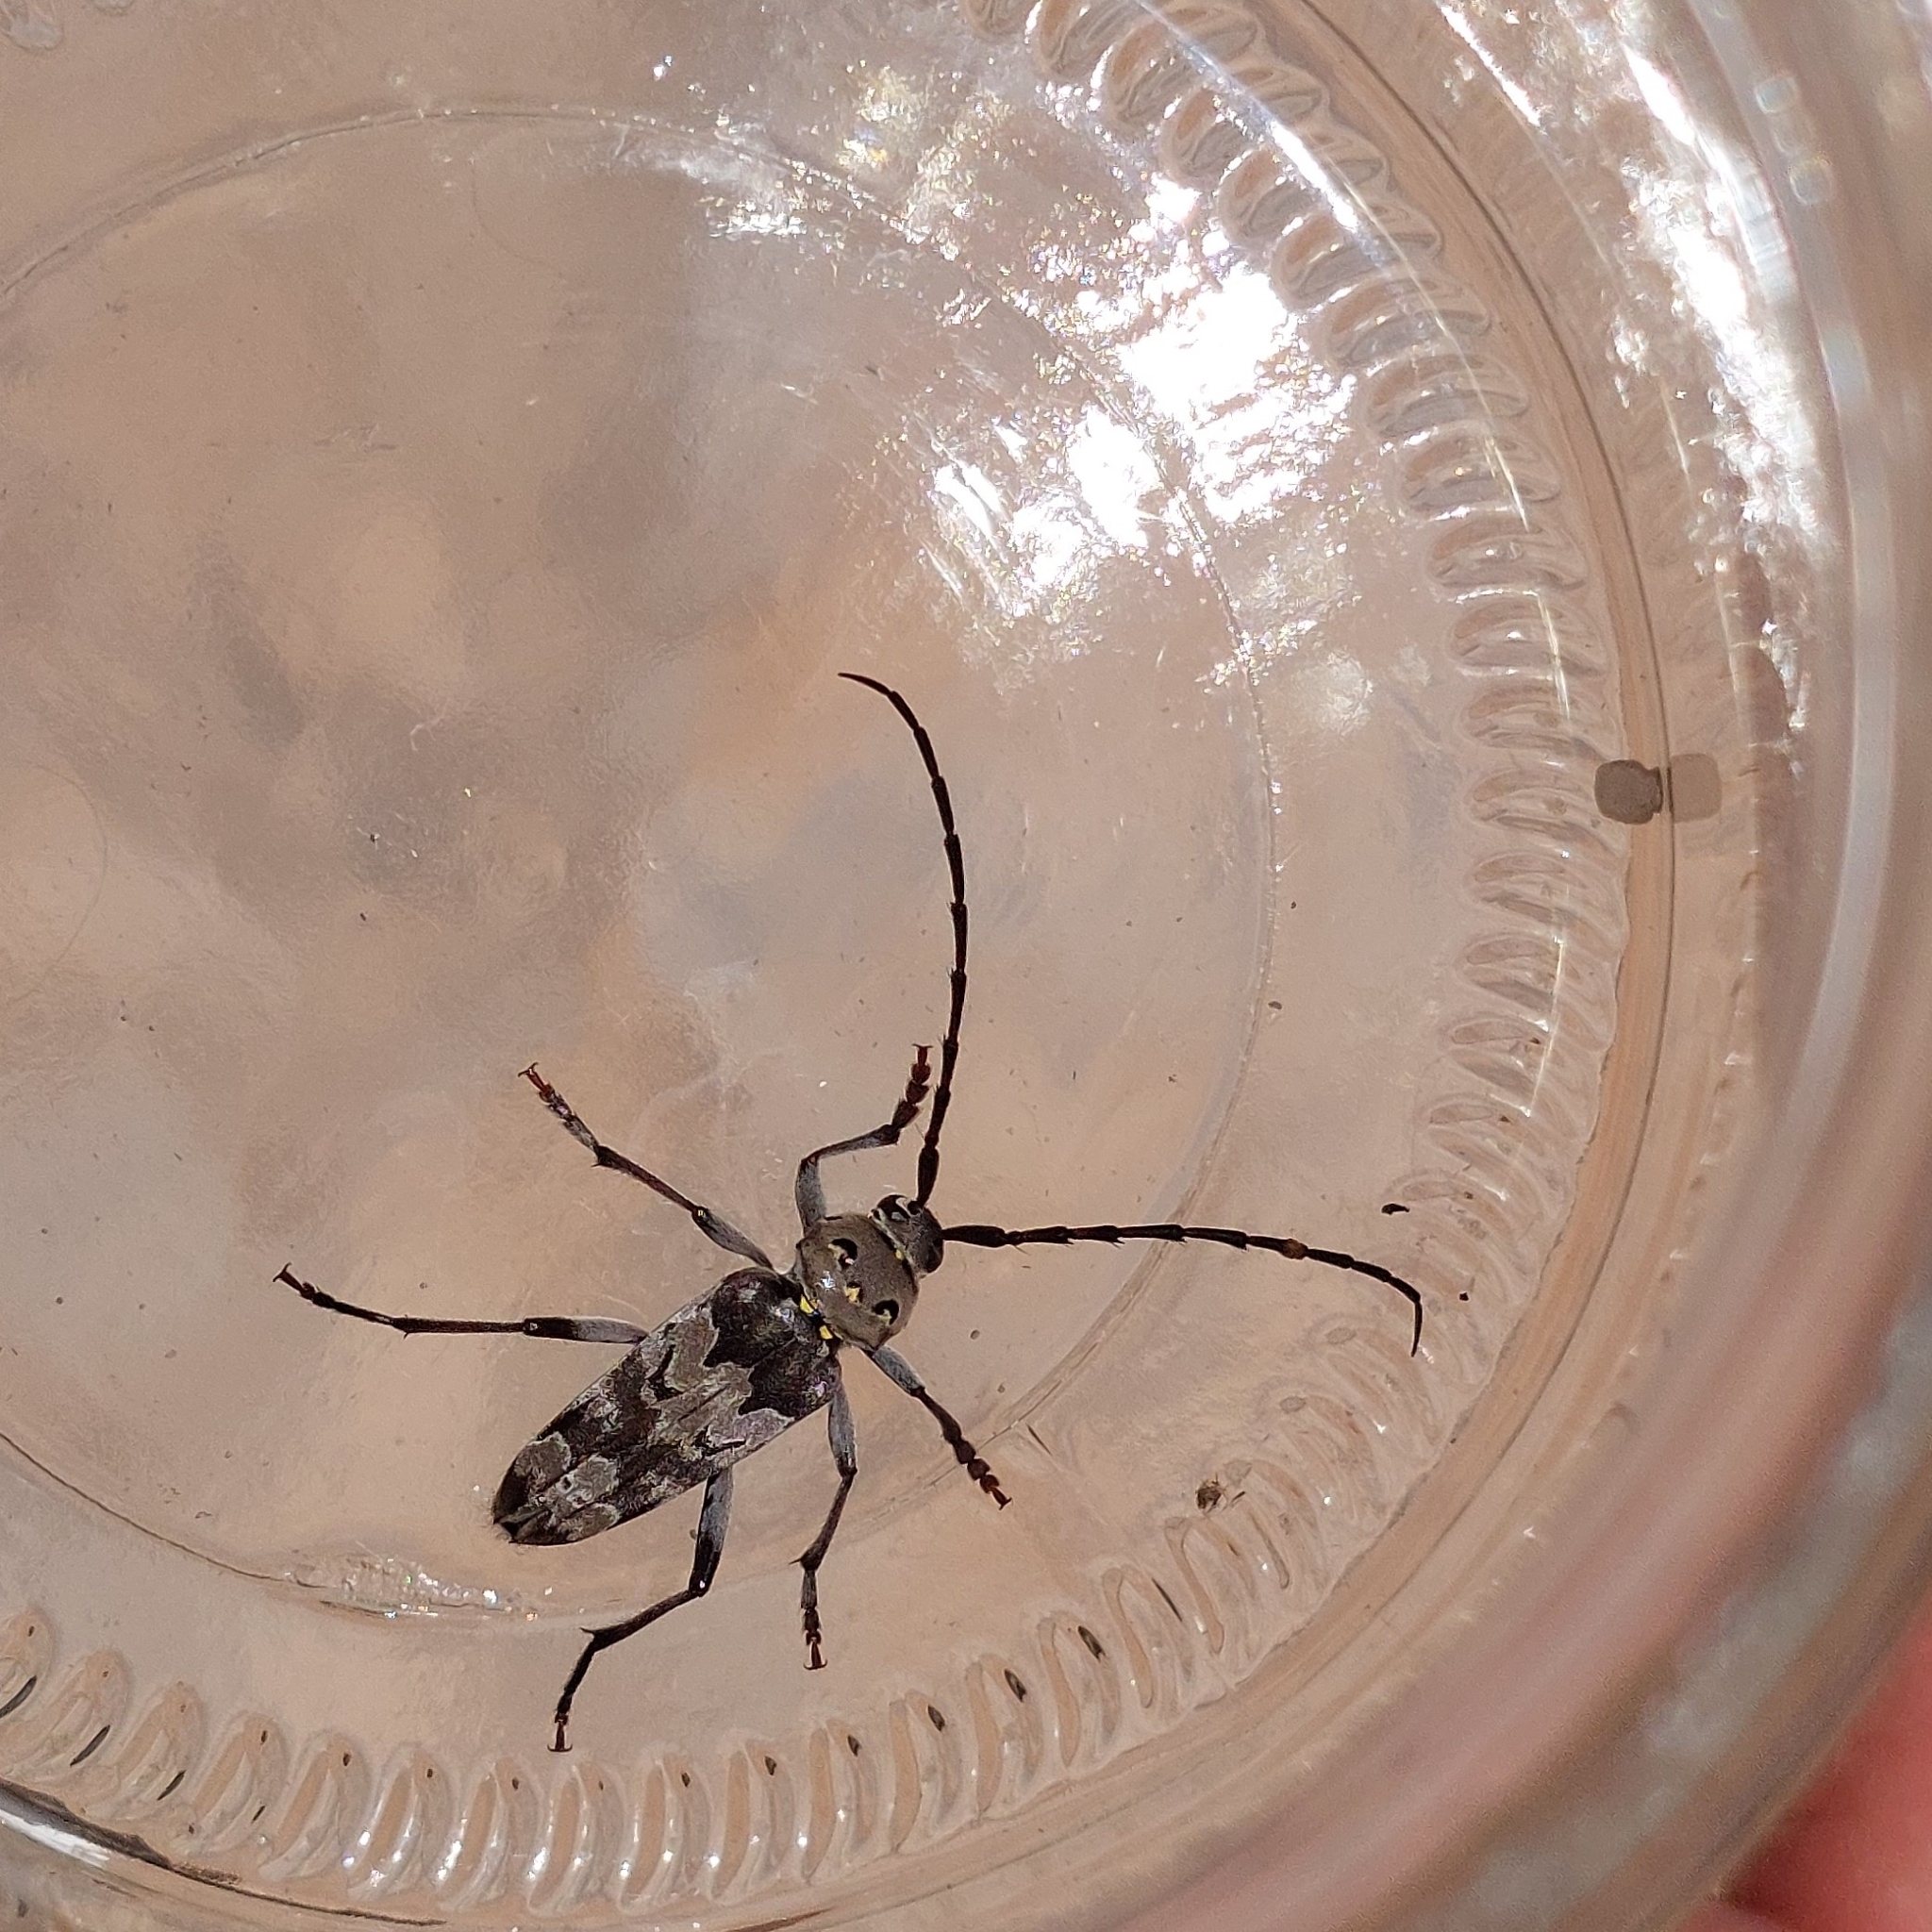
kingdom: Animalia
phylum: Arthropoda
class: Insecta
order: Coleoptera
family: Cerambycidae
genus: Megacyllene
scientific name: Megacyllene spinifera
